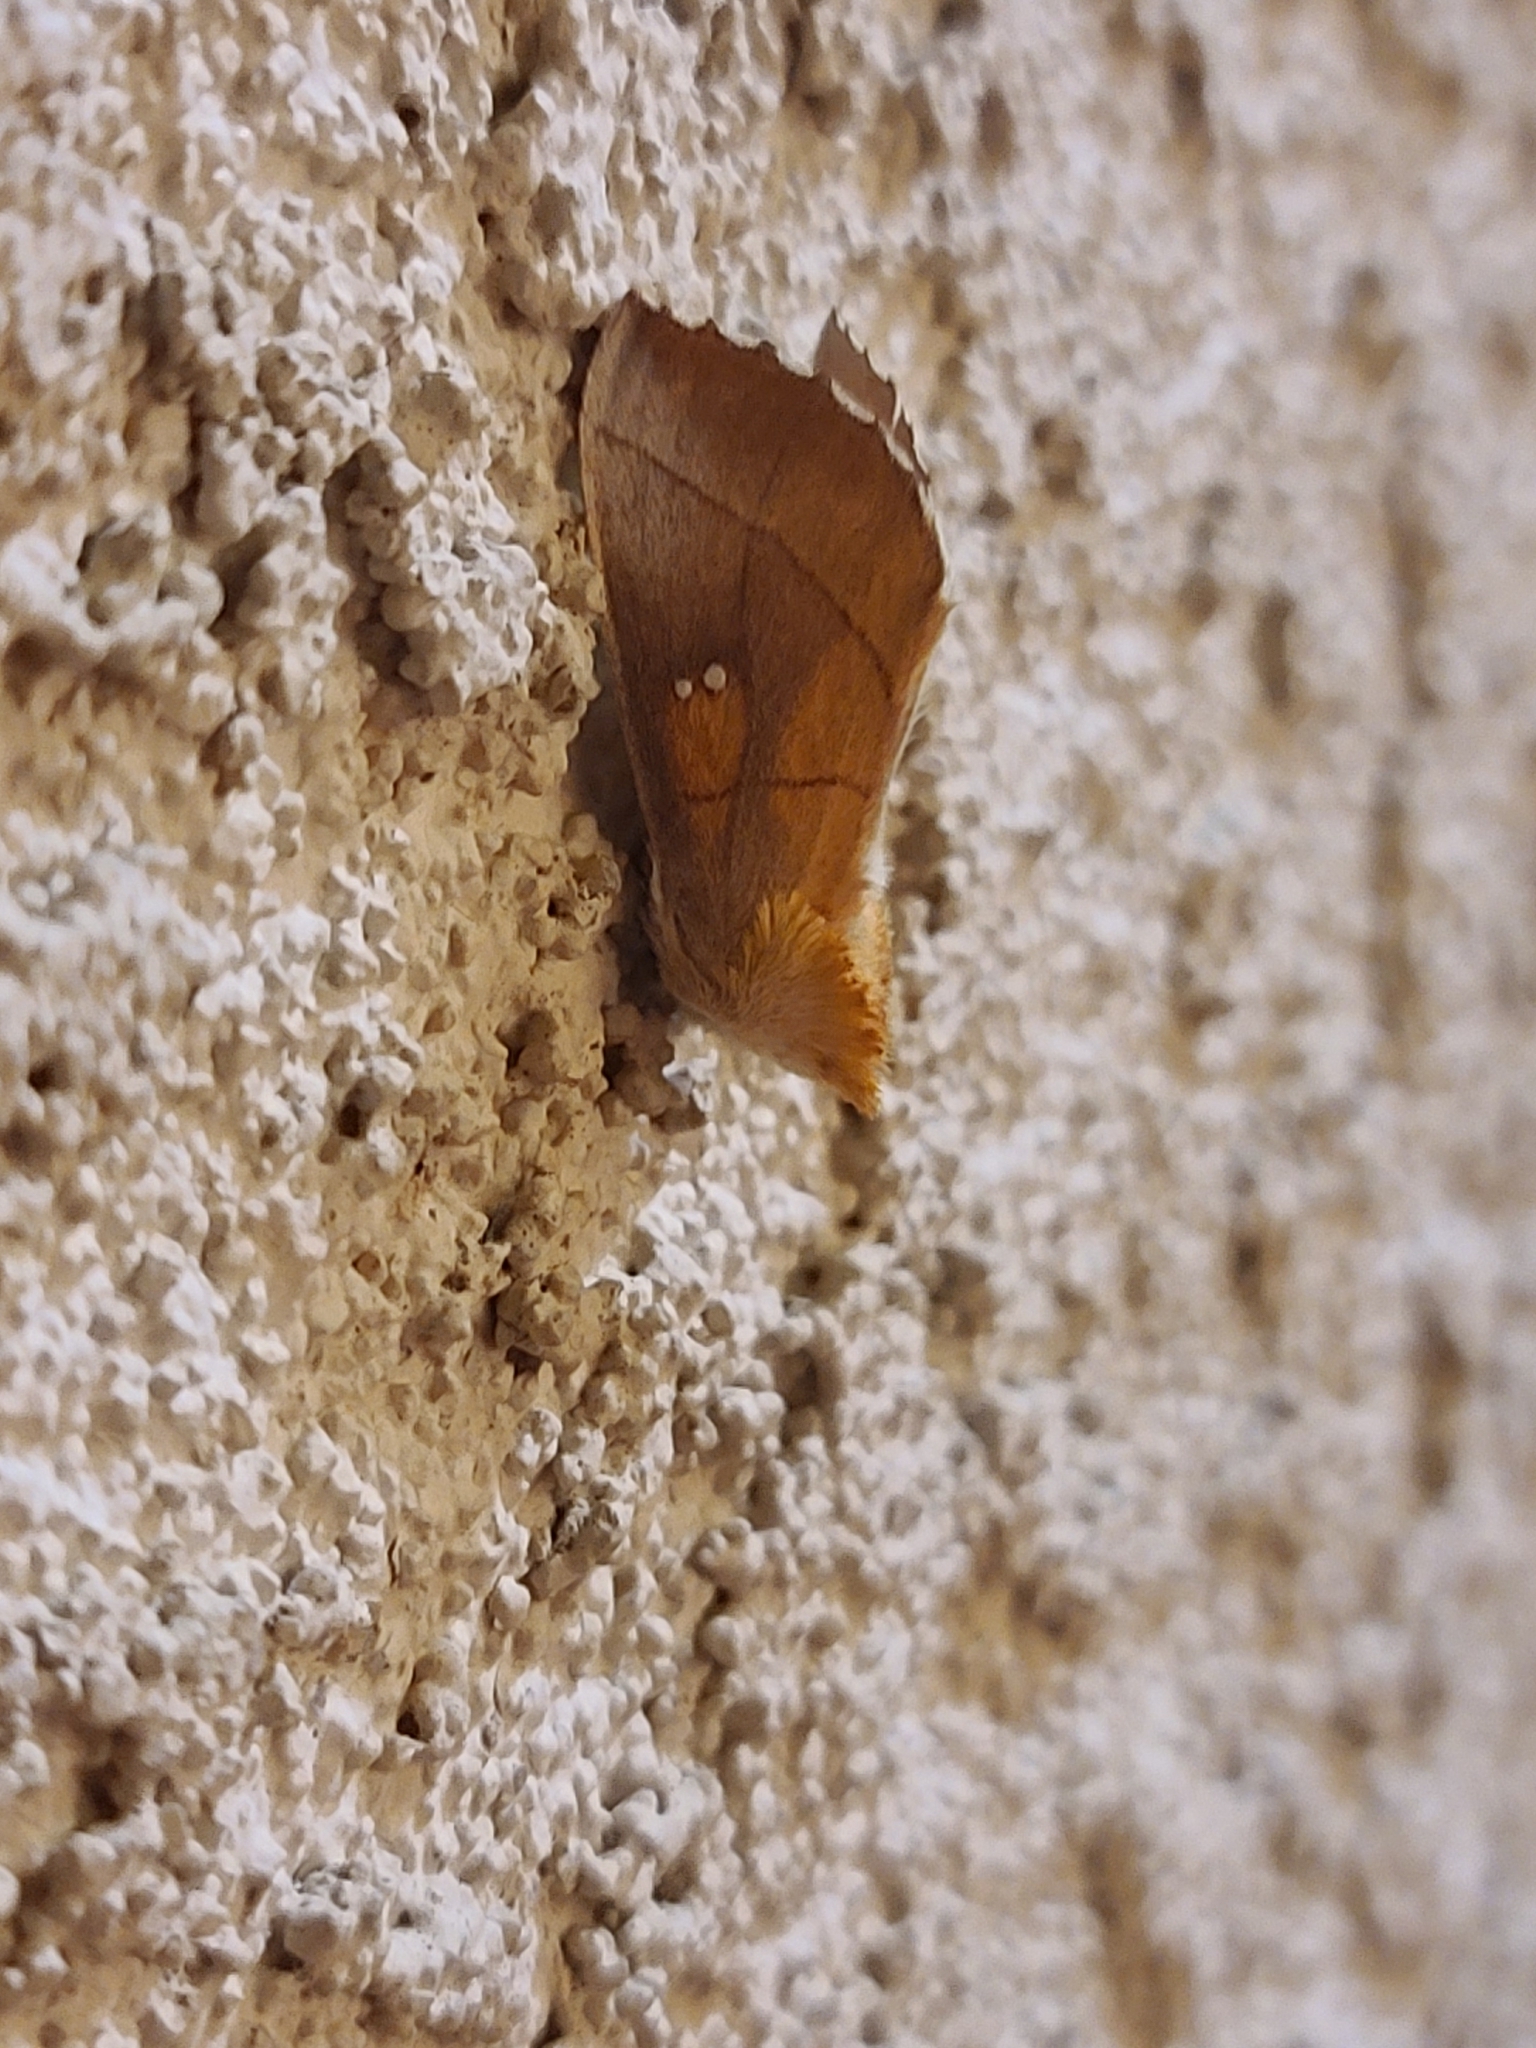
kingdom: Animalia
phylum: Arthropoda
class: Insecta
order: Lepidoptera
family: Notodontidae
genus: Nadata
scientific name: Nadata gibbosa
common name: White-dotted prominent
